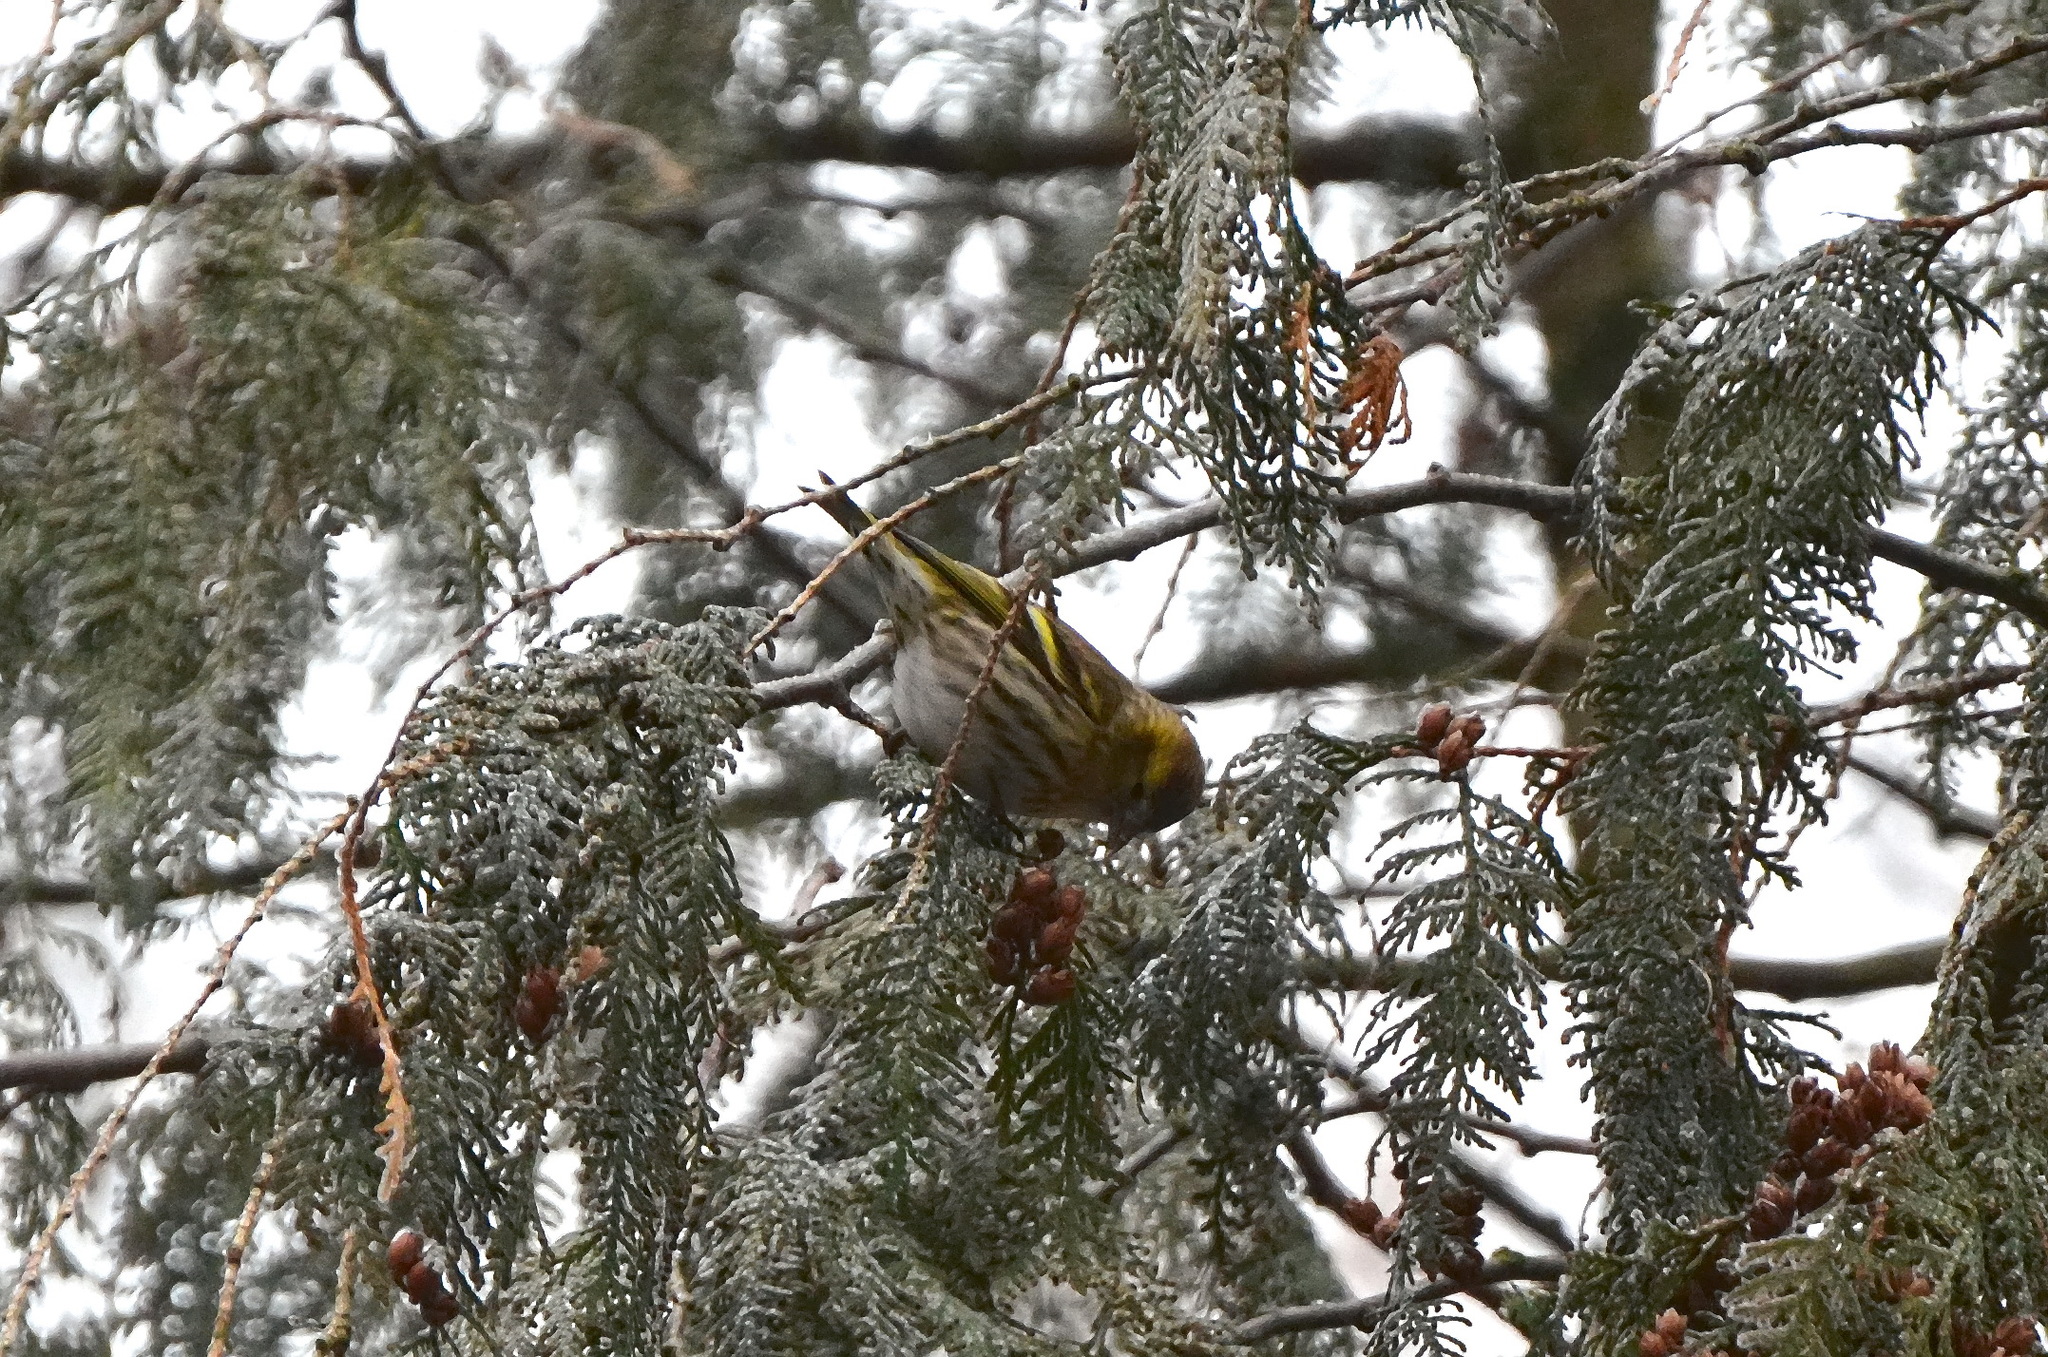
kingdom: Animalia
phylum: Chordata
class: Aves
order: Passeriformes
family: Fringillidae
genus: Spinus
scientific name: Spinus spinus
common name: Eurasian siskin
